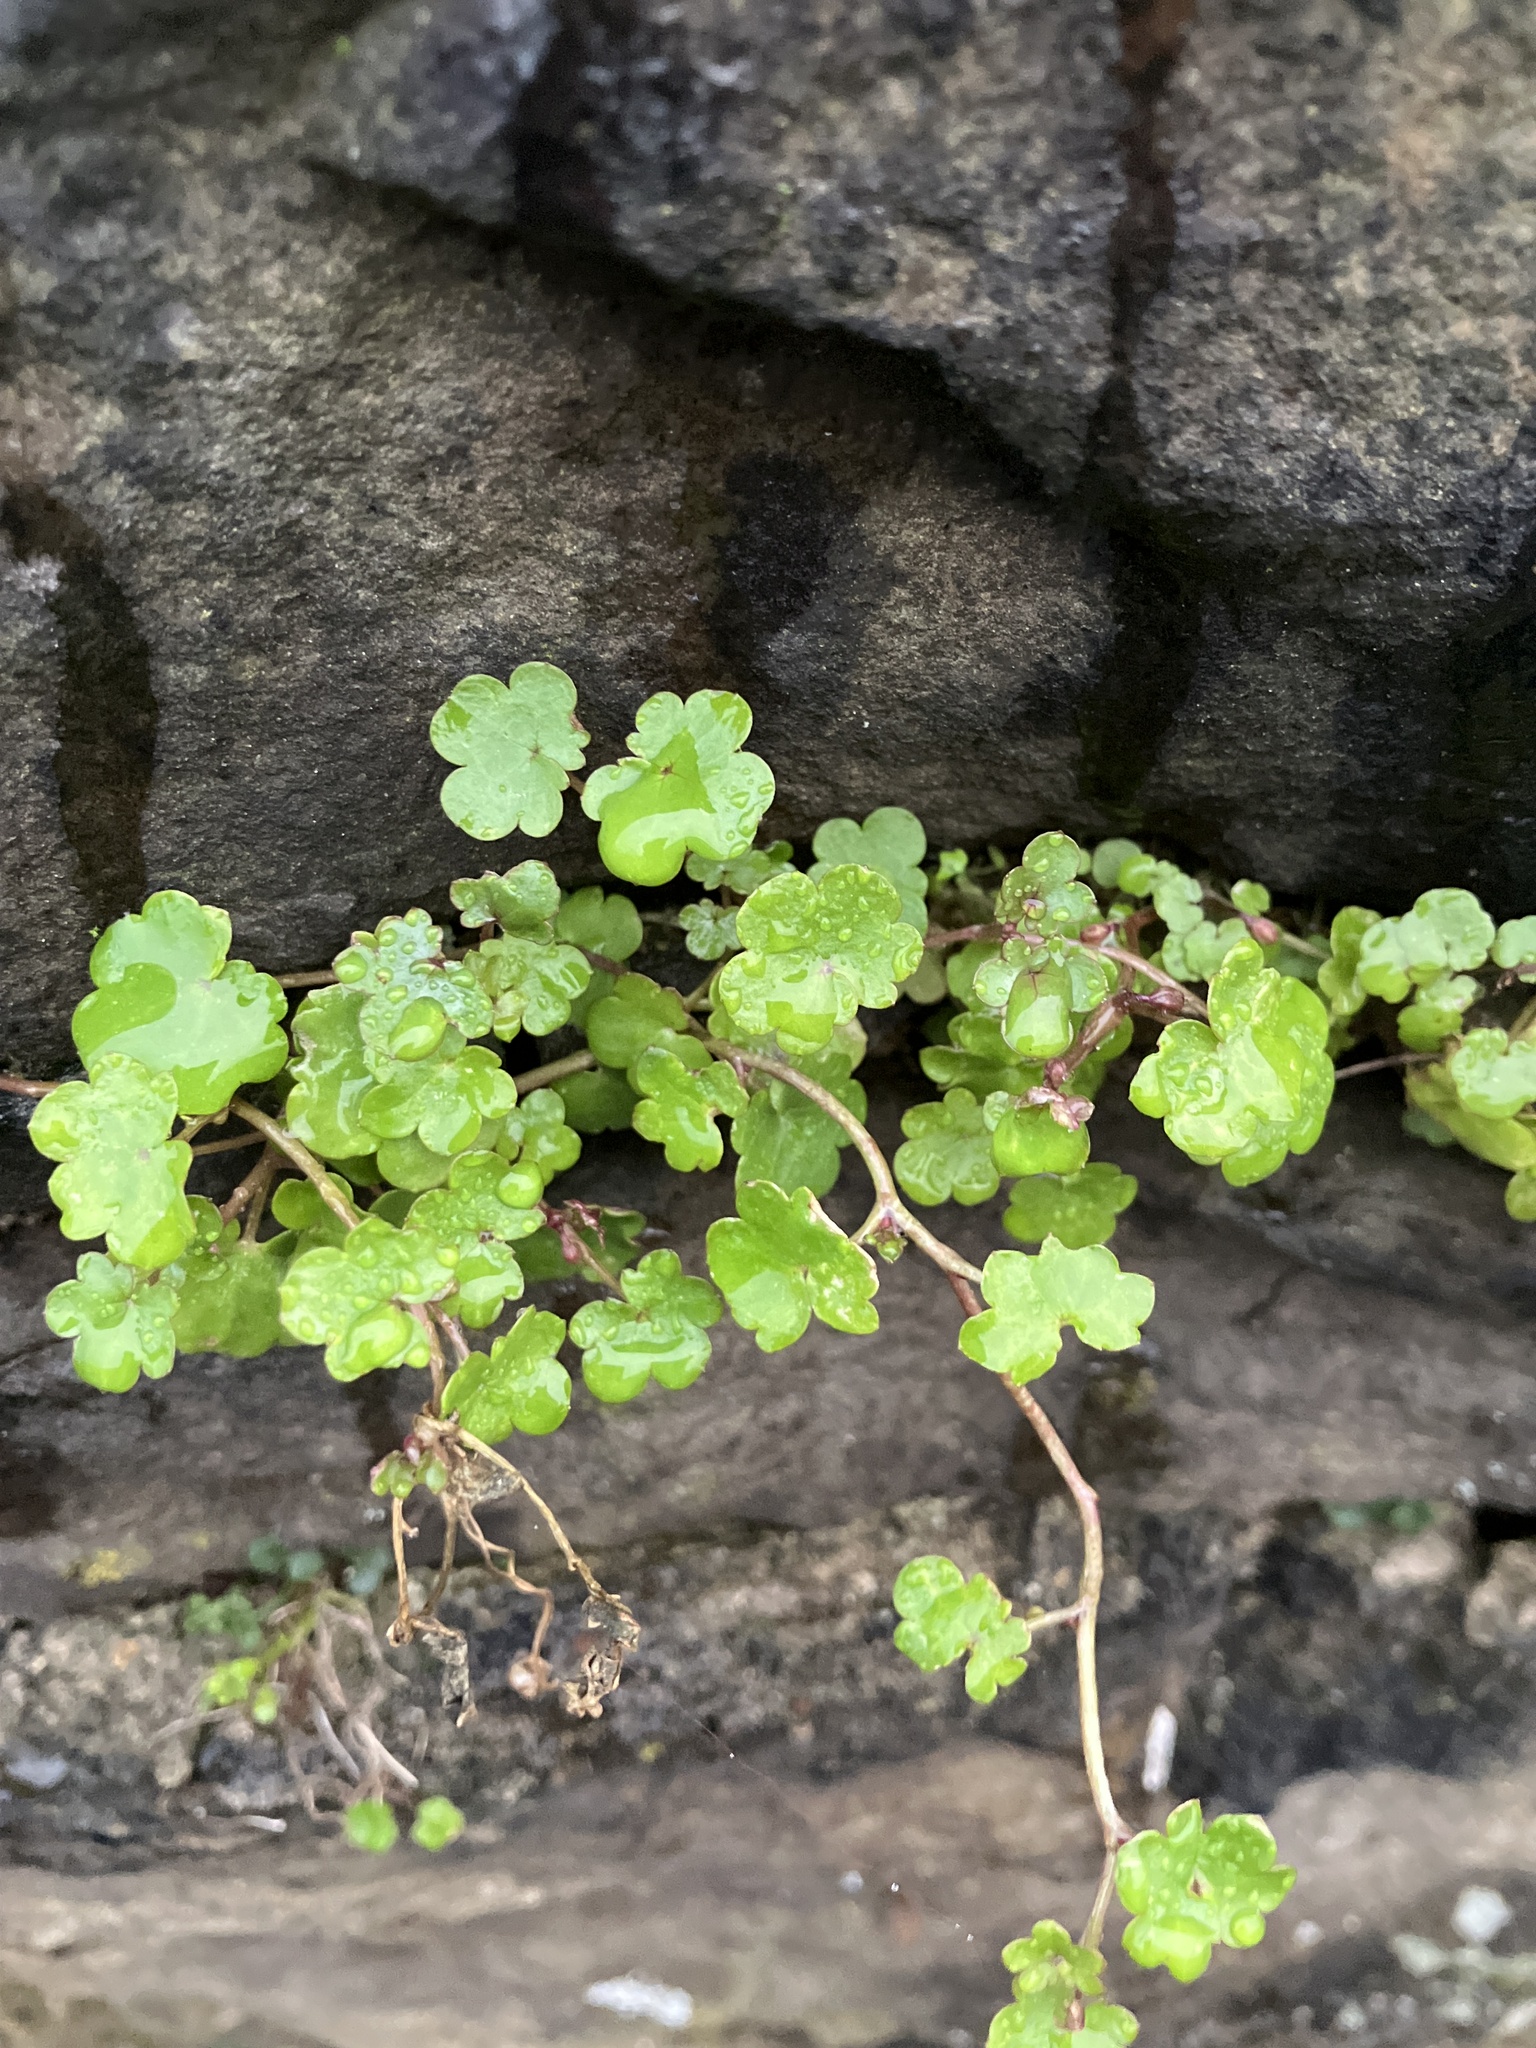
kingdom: Plantae
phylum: Tracheophyta
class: Magnoliopsida
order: Lamiales
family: Plantaginaceae
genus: Cymbalaria
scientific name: Cymbalaria muralis
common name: Ivy-leaved toadflax
